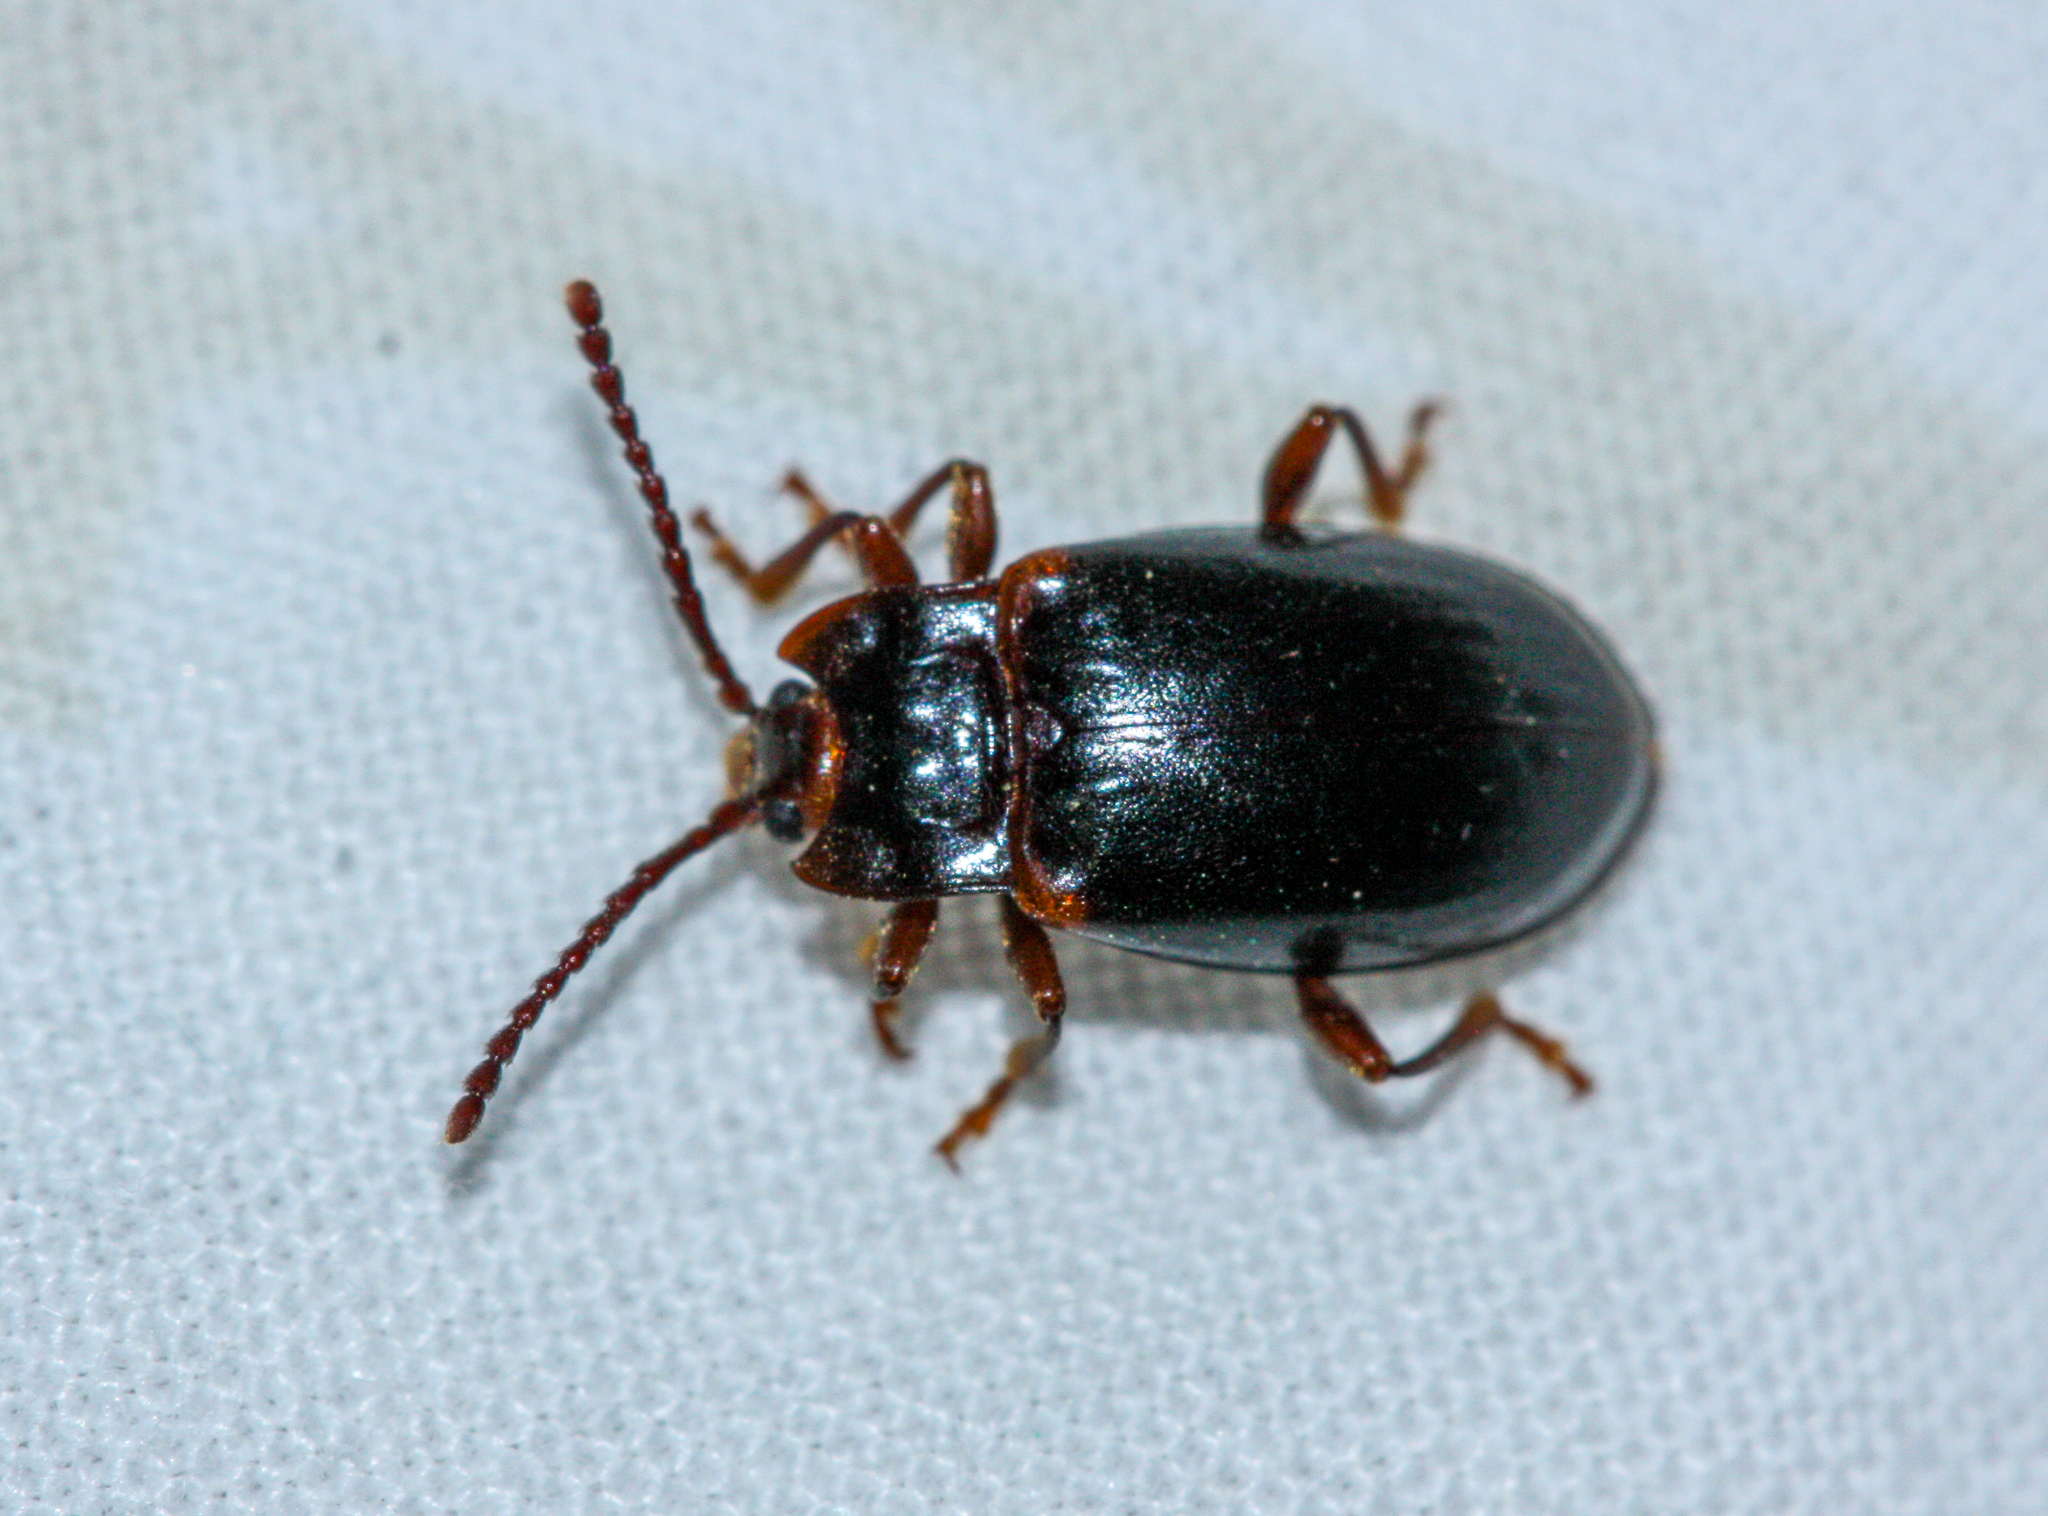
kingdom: Animalia
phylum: Arthropoda
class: Insecta
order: Coleoptera
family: Endomychidae
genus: Aphorista
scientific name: Aphorista morosa
